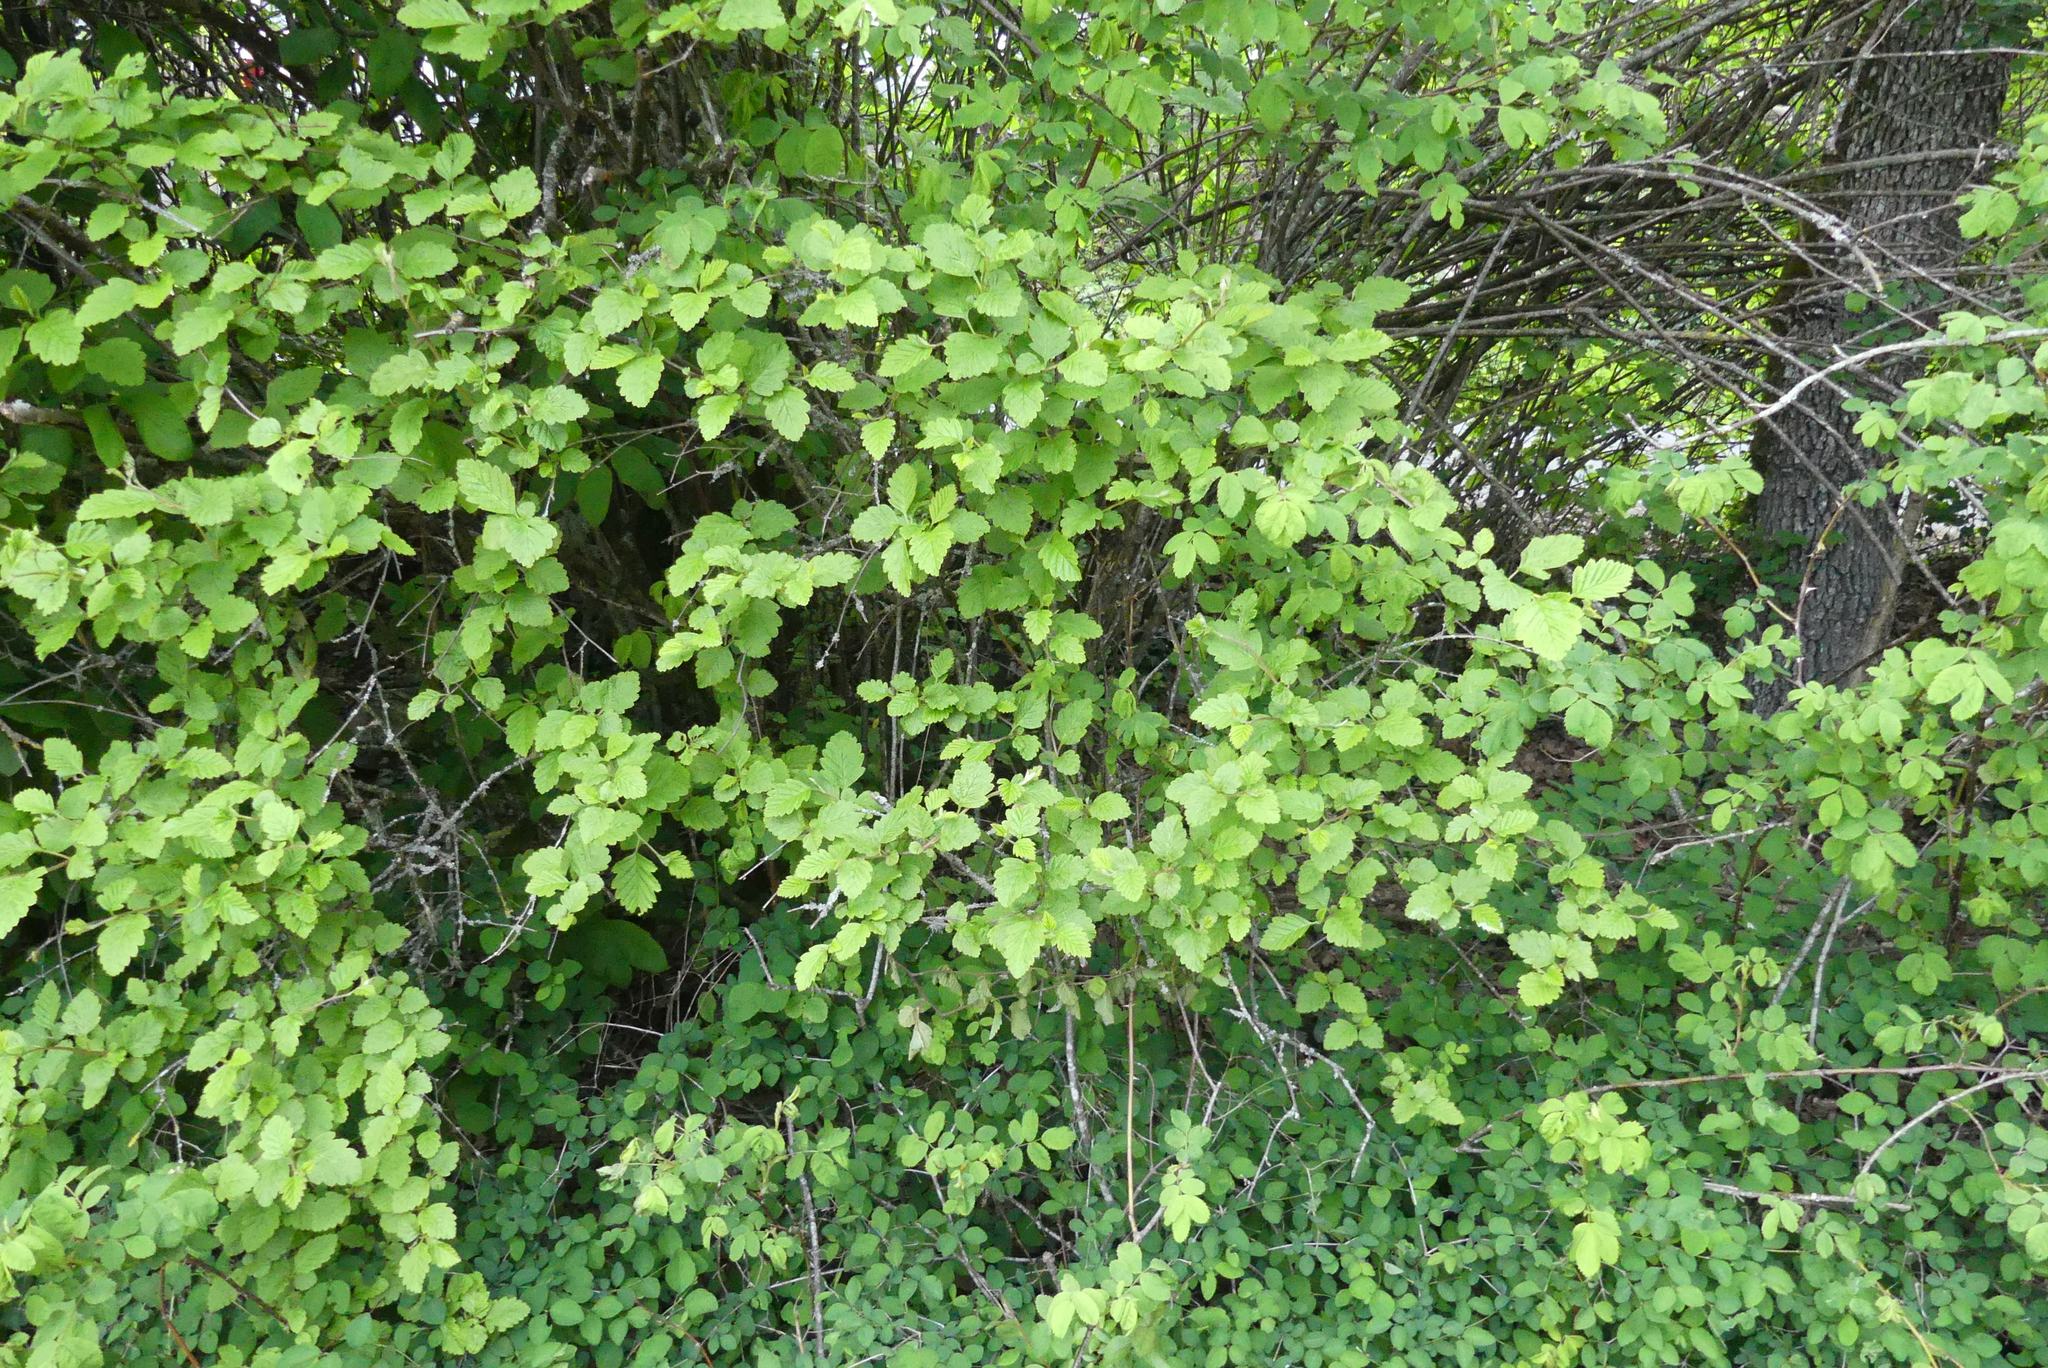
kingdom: Plantae
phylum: Tracheophyta
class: Magnoliopsida
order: Rosales
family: Rosaceae
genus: Holodiscus
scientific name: Holodiscus discolor
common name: Oceanspray
